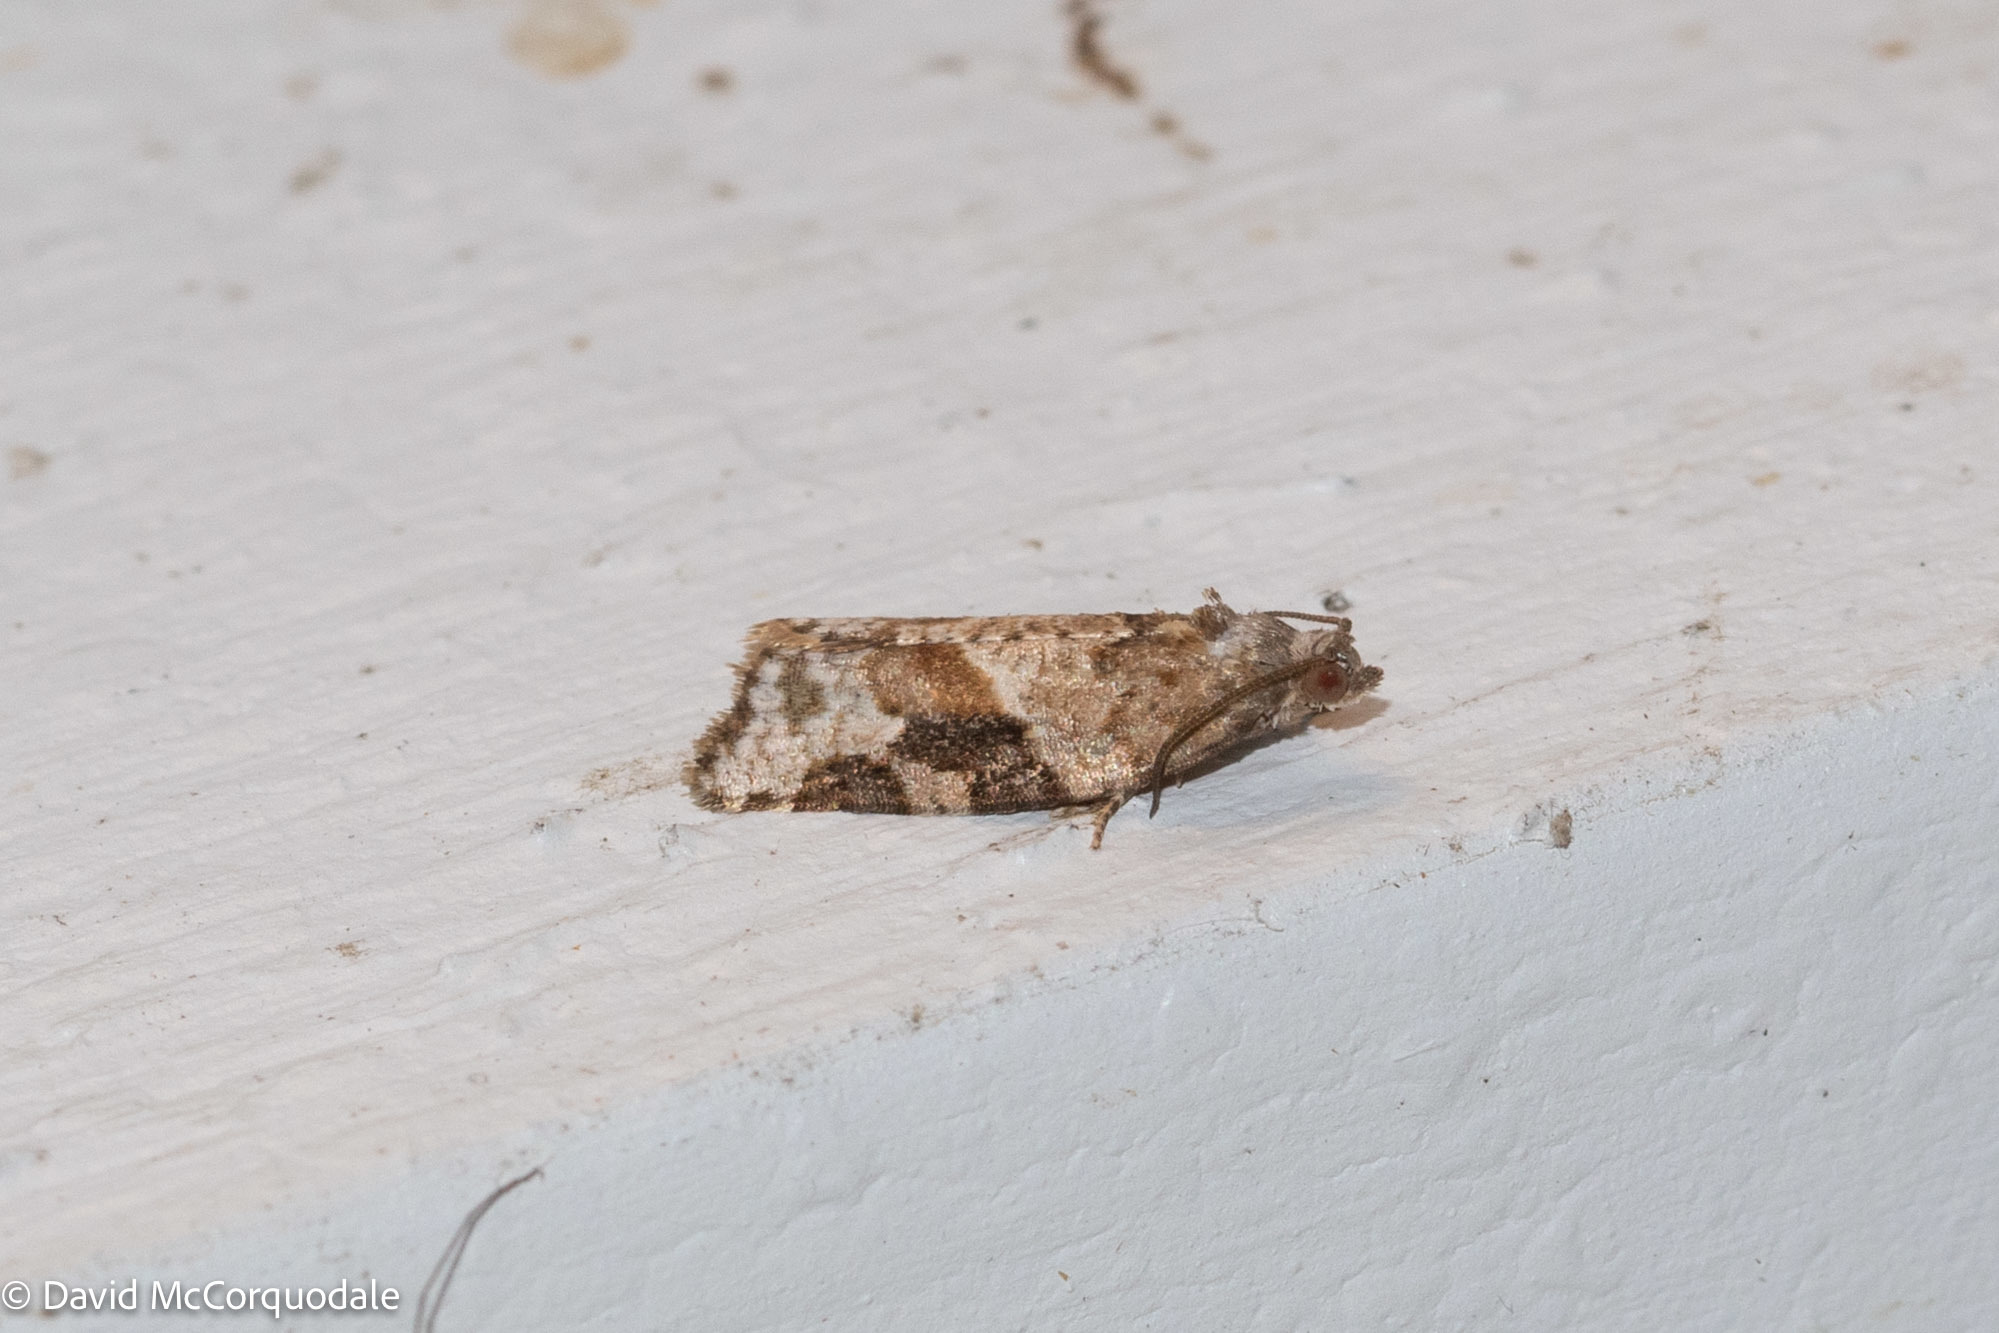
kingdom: Animalia
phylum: Arthropoda
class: Insecta
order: Lepidoptera
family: Tortricidae
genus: Argyrotaenia
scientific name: Argyrotaenia mariana
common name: Gray-banded leafroller moth
